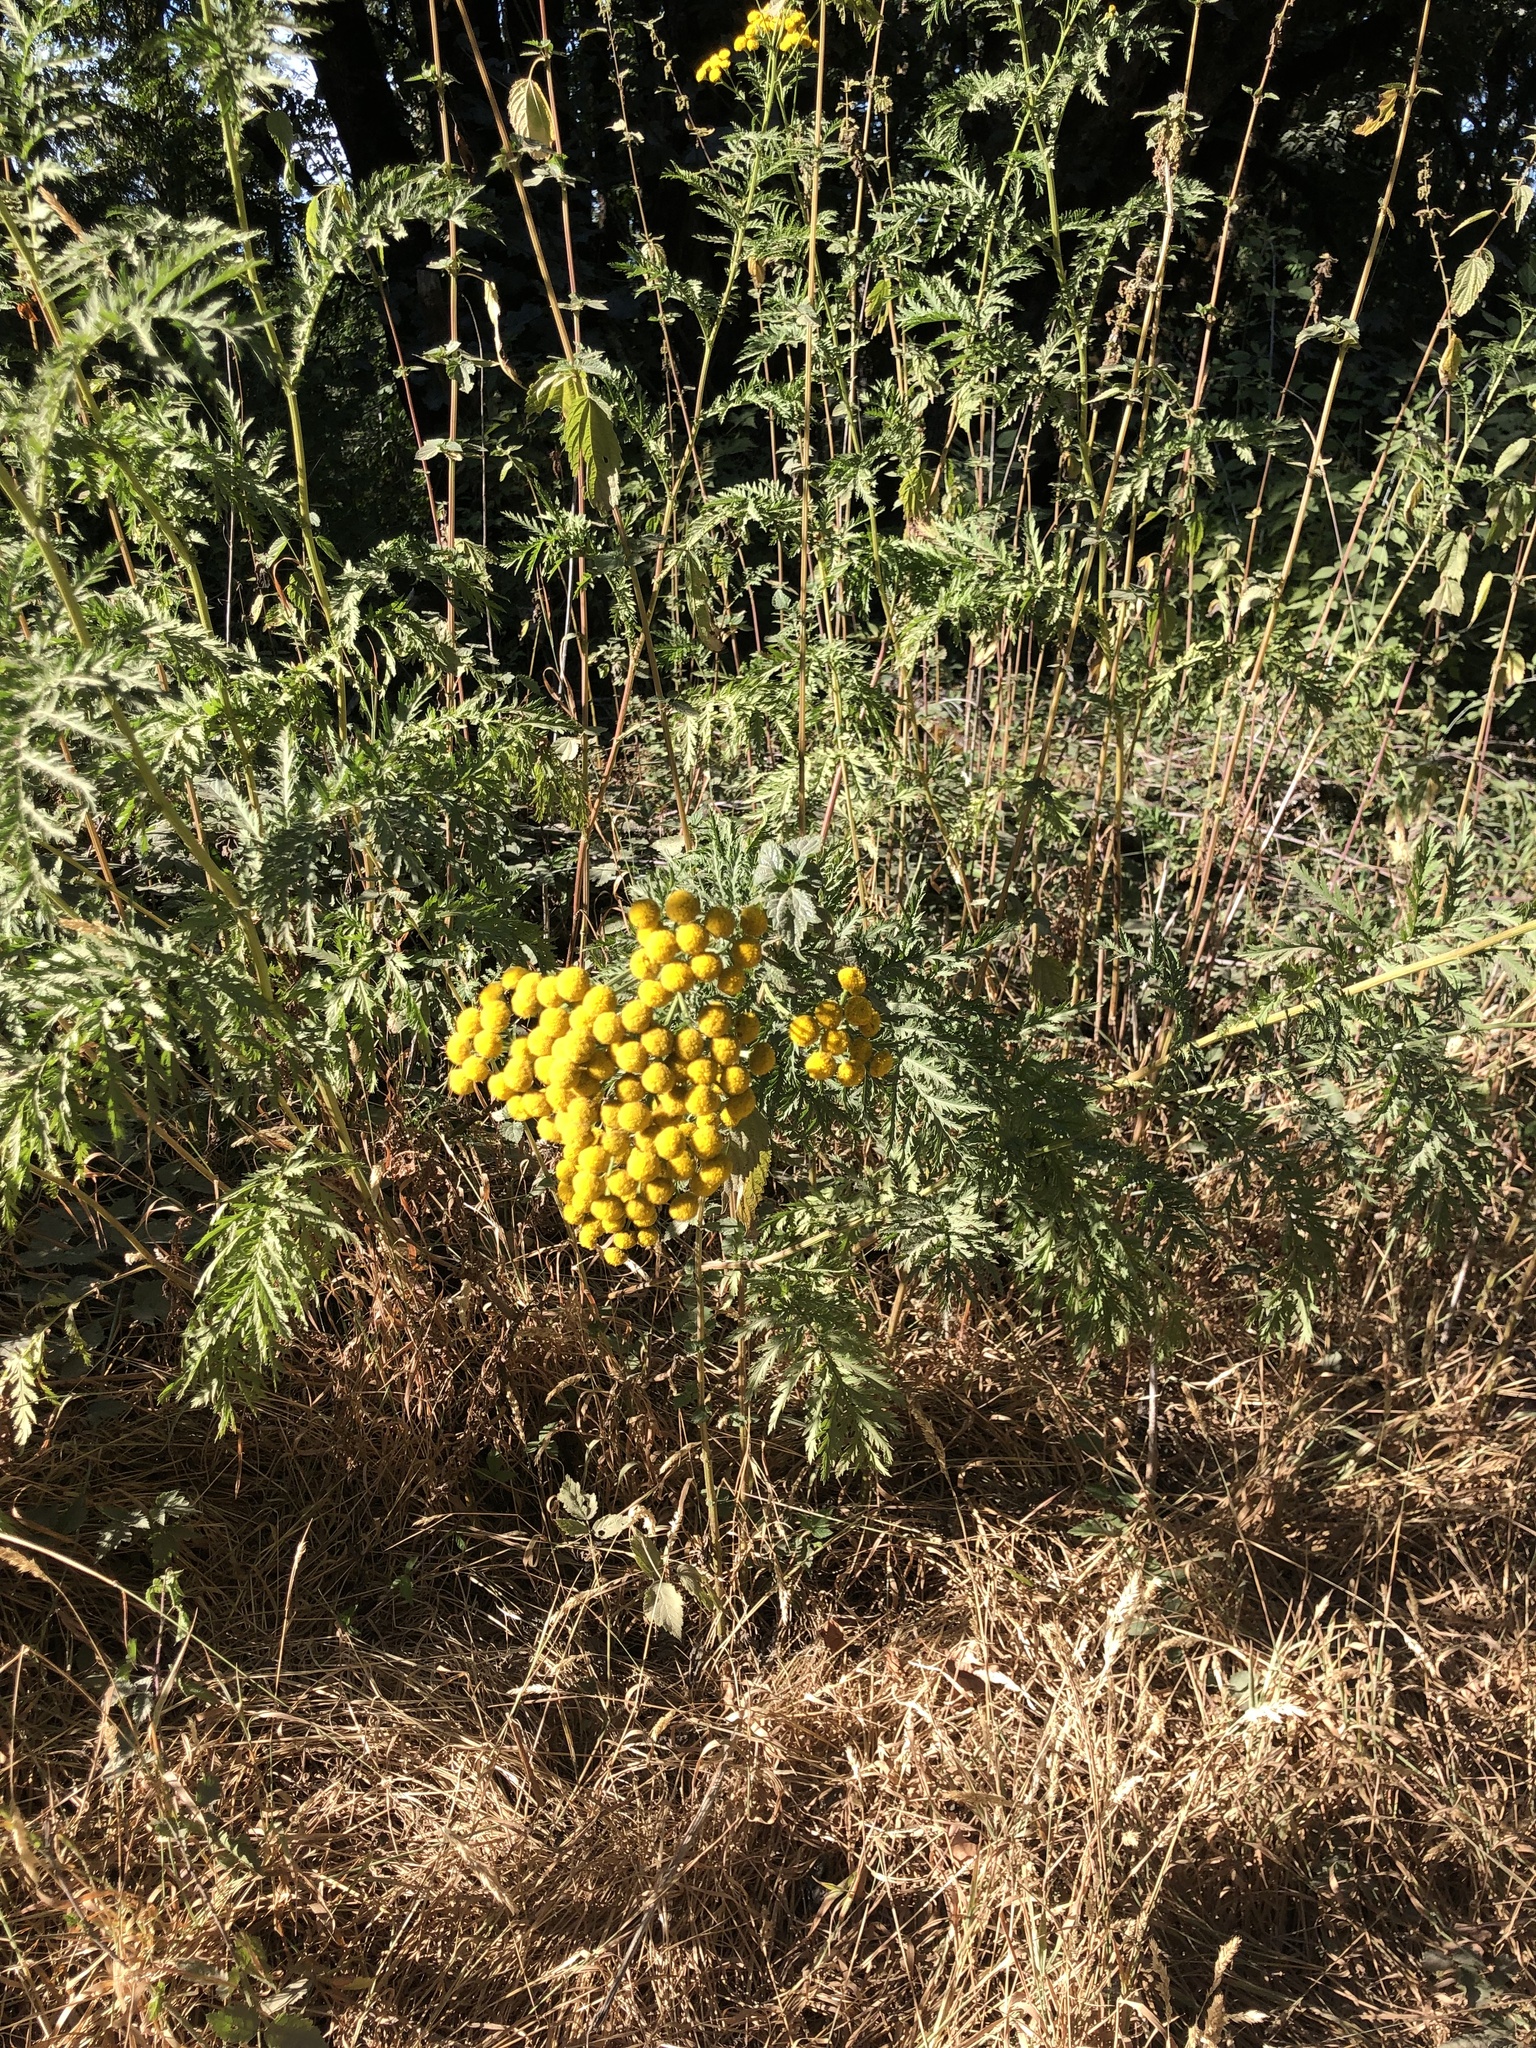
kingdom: Plantae
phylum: Tracheophyta
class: Magnoliopsida
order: Asterales
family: Asteraceae
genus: Tanacetum
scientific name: Tanacetum vulgare
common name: Common tansy
